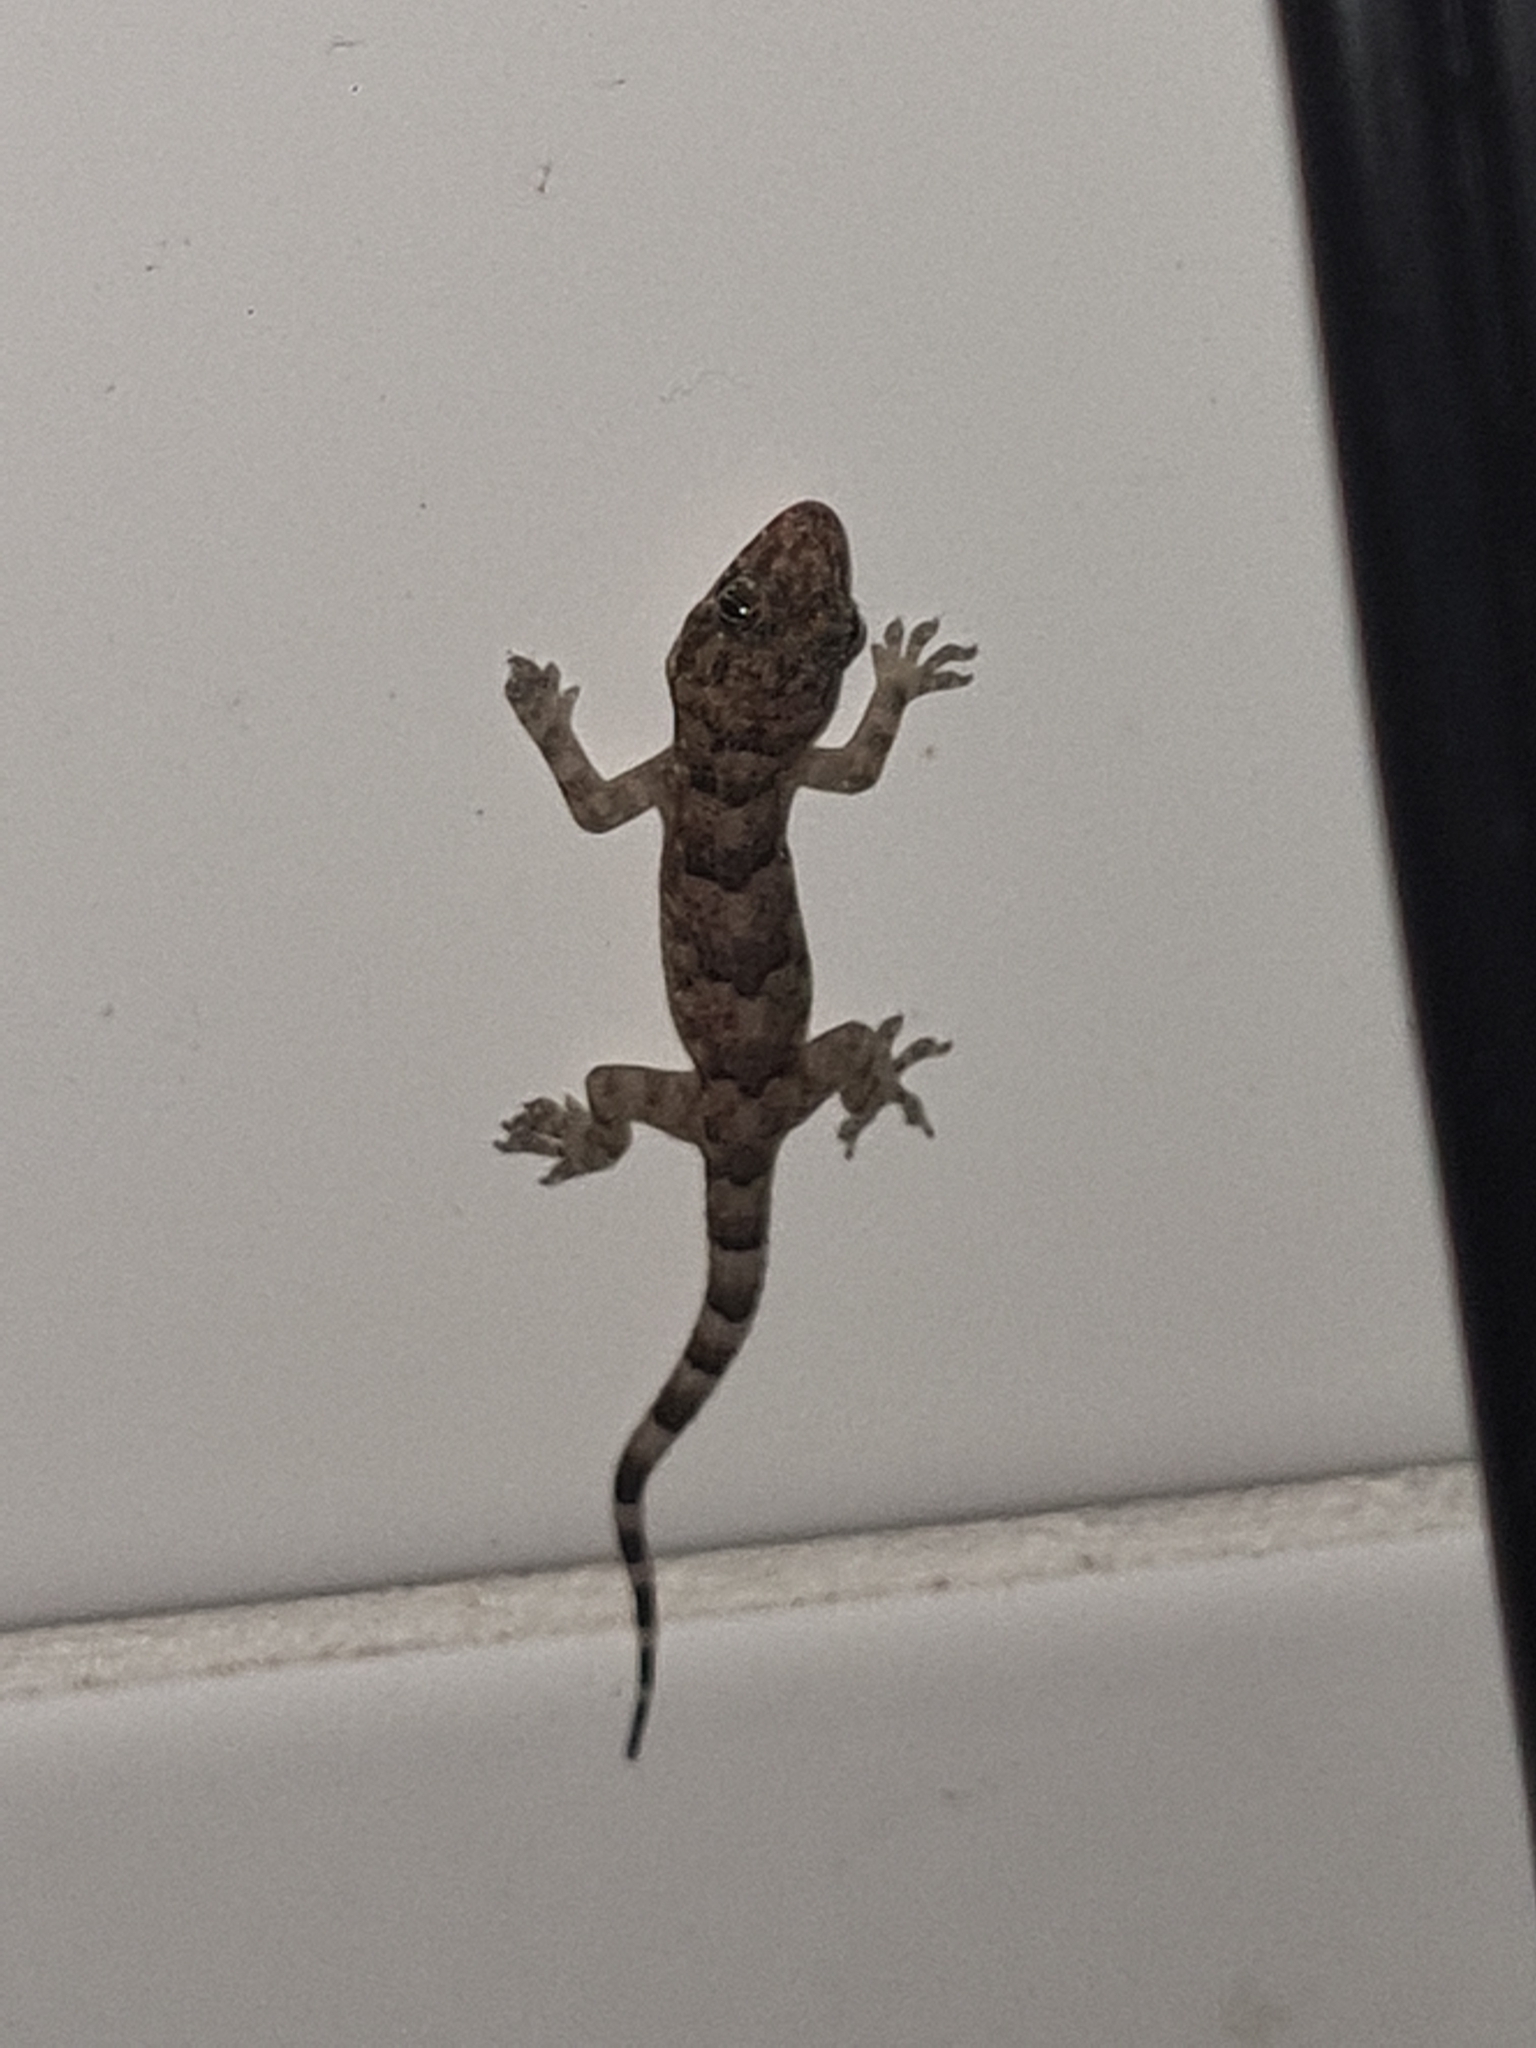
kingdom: Animalia
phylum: Chordata
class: Squamata
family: Gekkonidae
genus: Hemidactylus
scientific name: Hemidactylus mabouia
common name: House gecko
